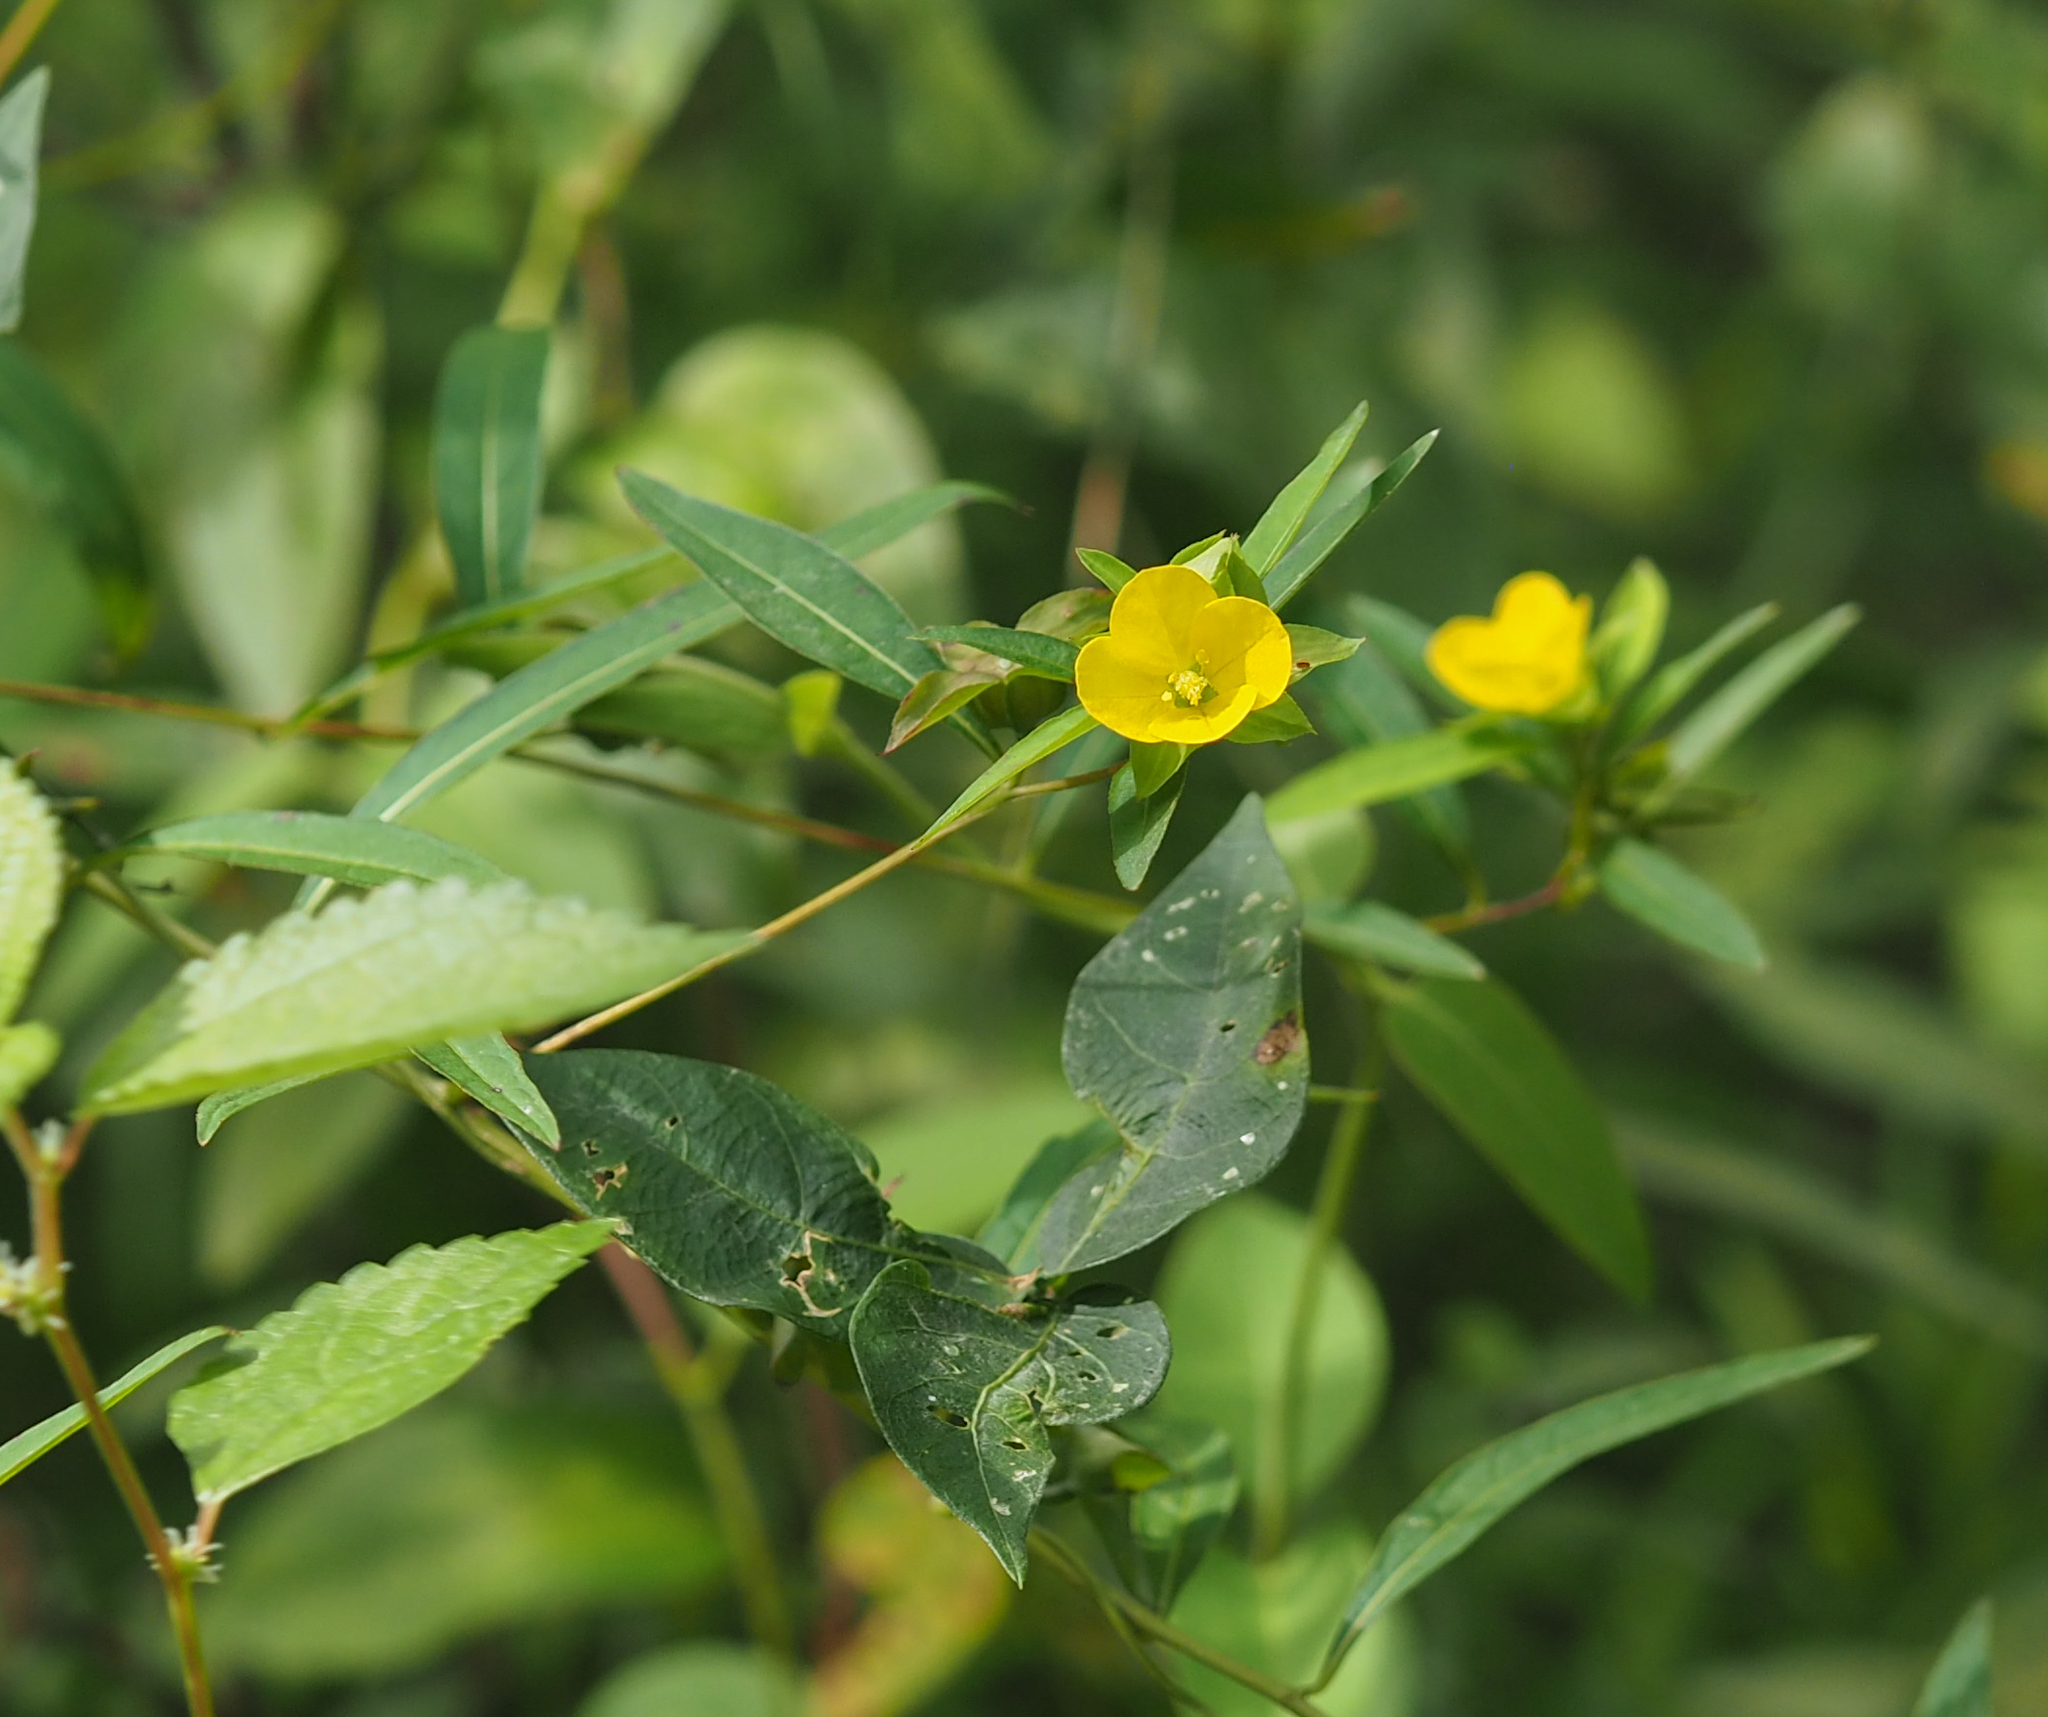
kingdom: Plantae
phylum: Tracheophyta
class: Magnoliopsida
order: Myrtales
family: Onagraceae
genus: Ludwigia
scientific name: Ludwigia alternifolia
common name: Rattlebox
